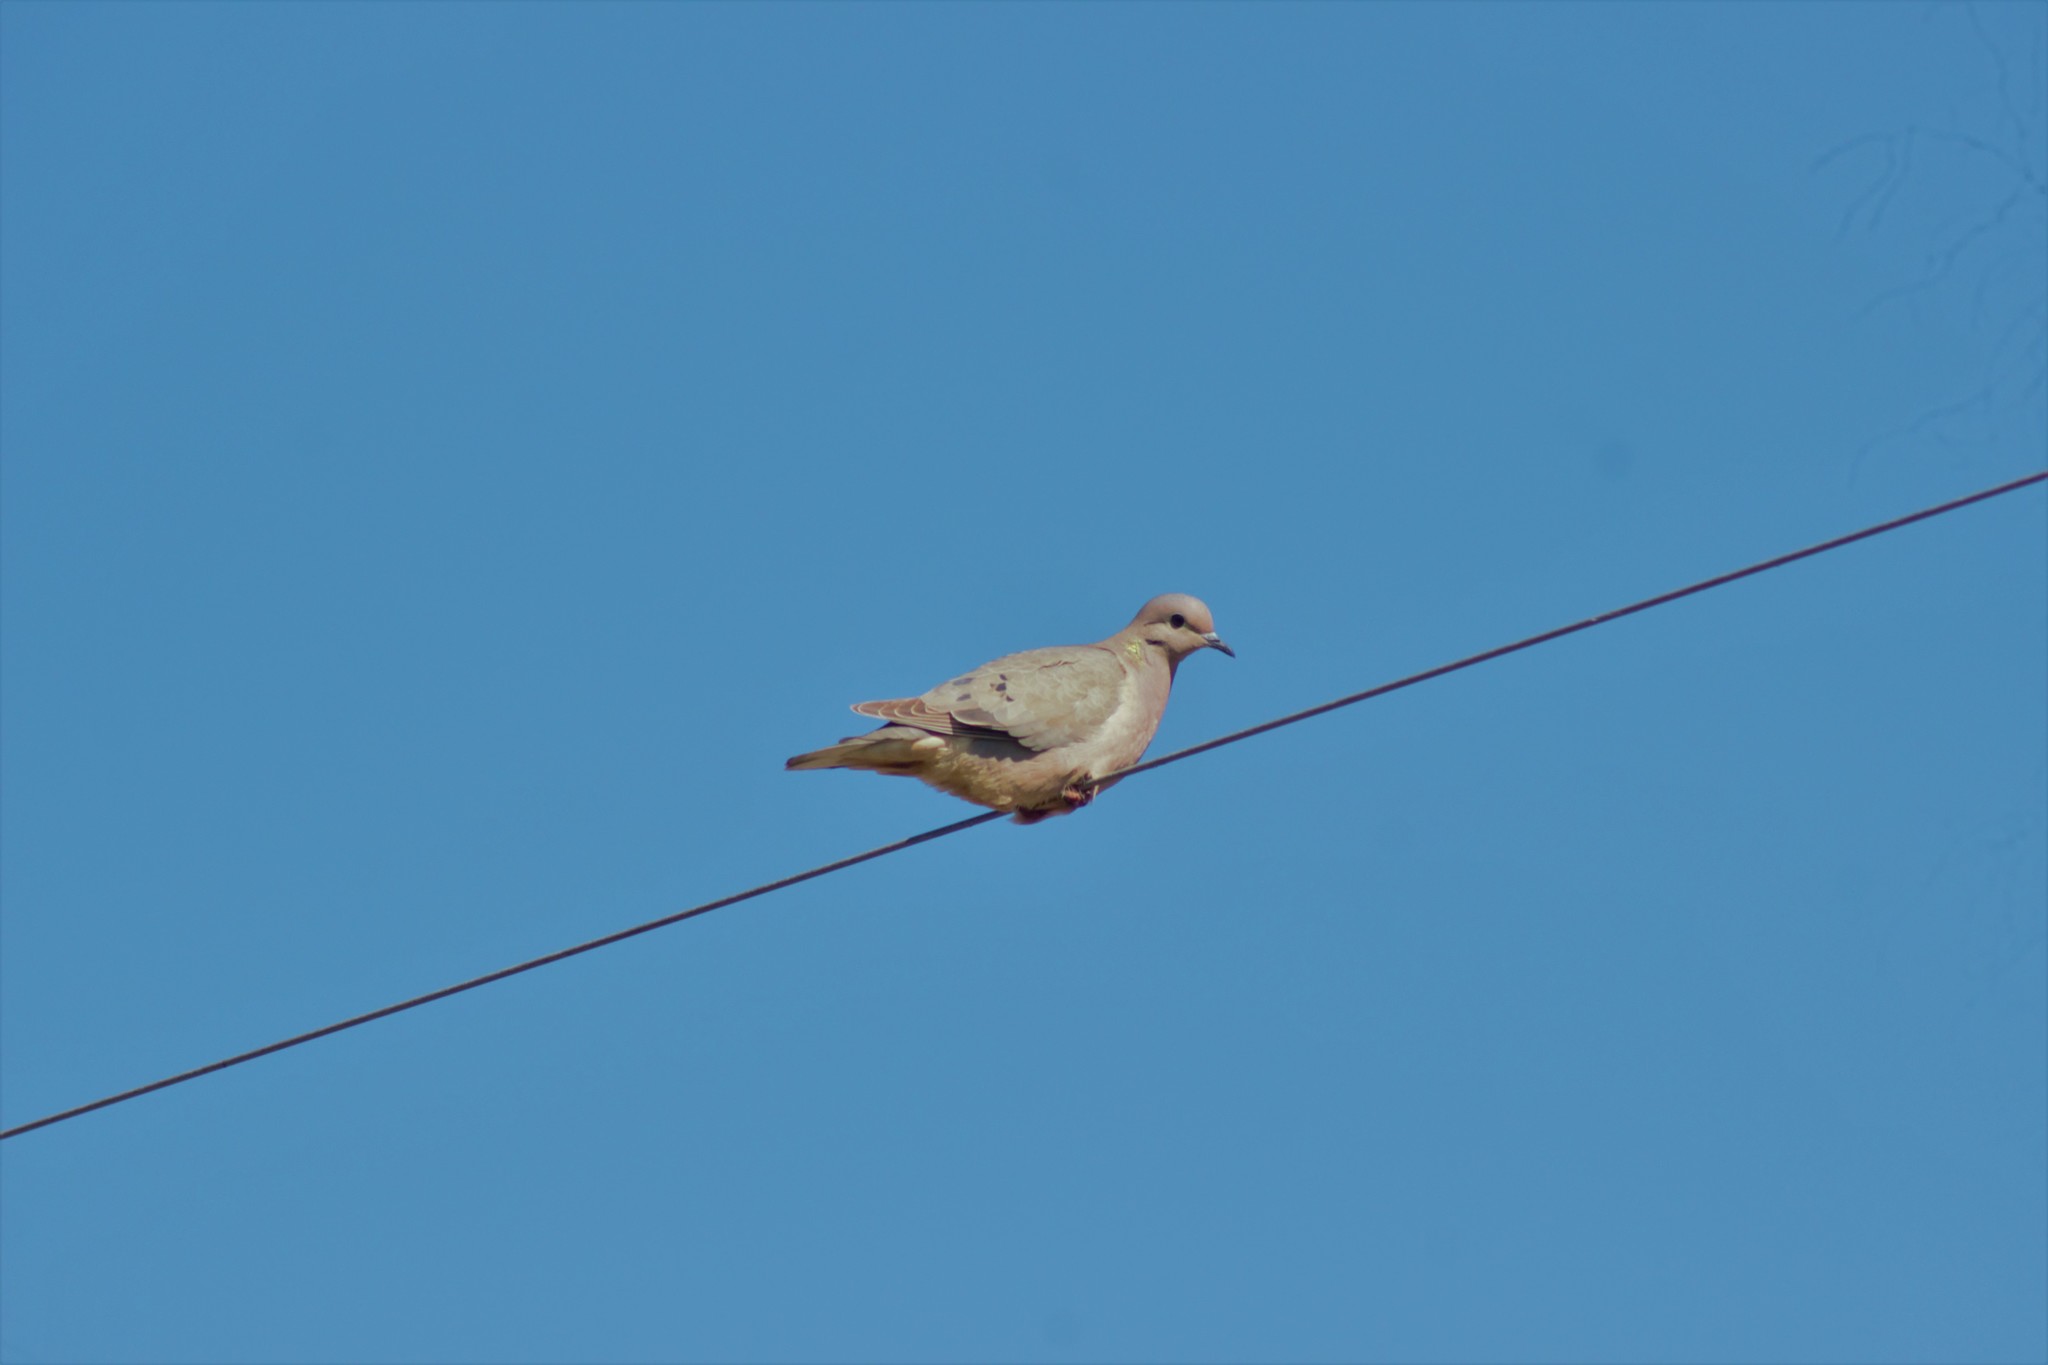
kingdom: Animalia
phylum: Chordata
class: Aves
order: Columbiformes
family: Columbidae
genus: Zenaida
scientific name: Zenaida auriculata
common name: Eared dove
